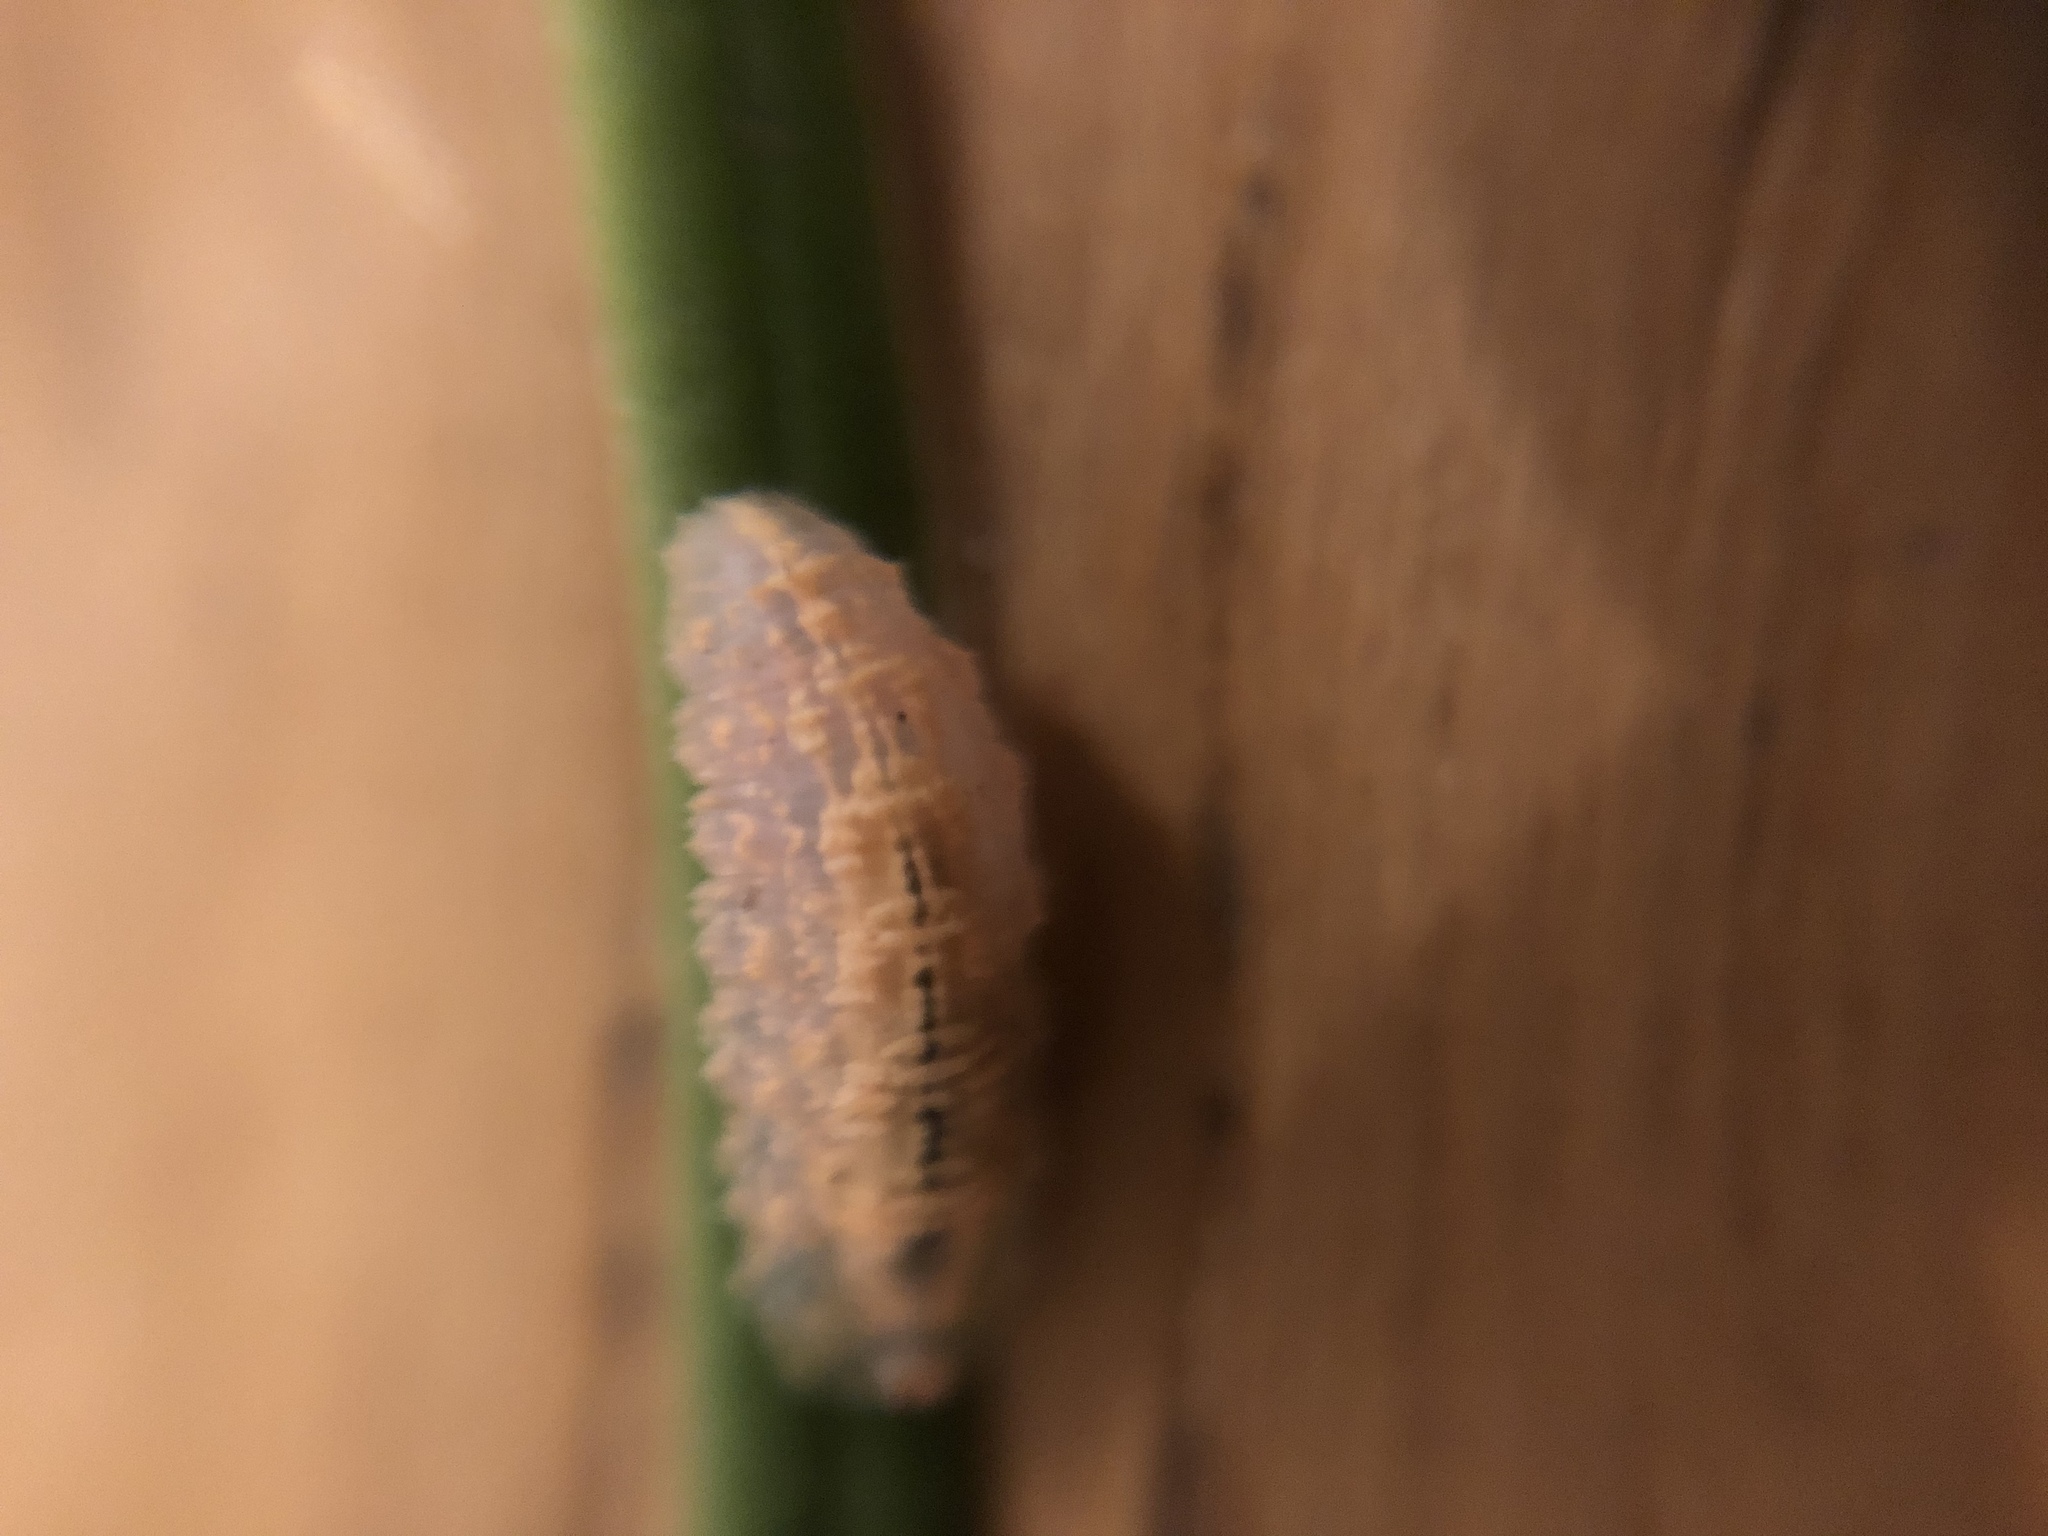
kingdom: Animalia
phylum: Arthropoda
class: Insecta
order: Diptera
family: Syrphidae
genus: Syrphus
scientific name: Syrphus
